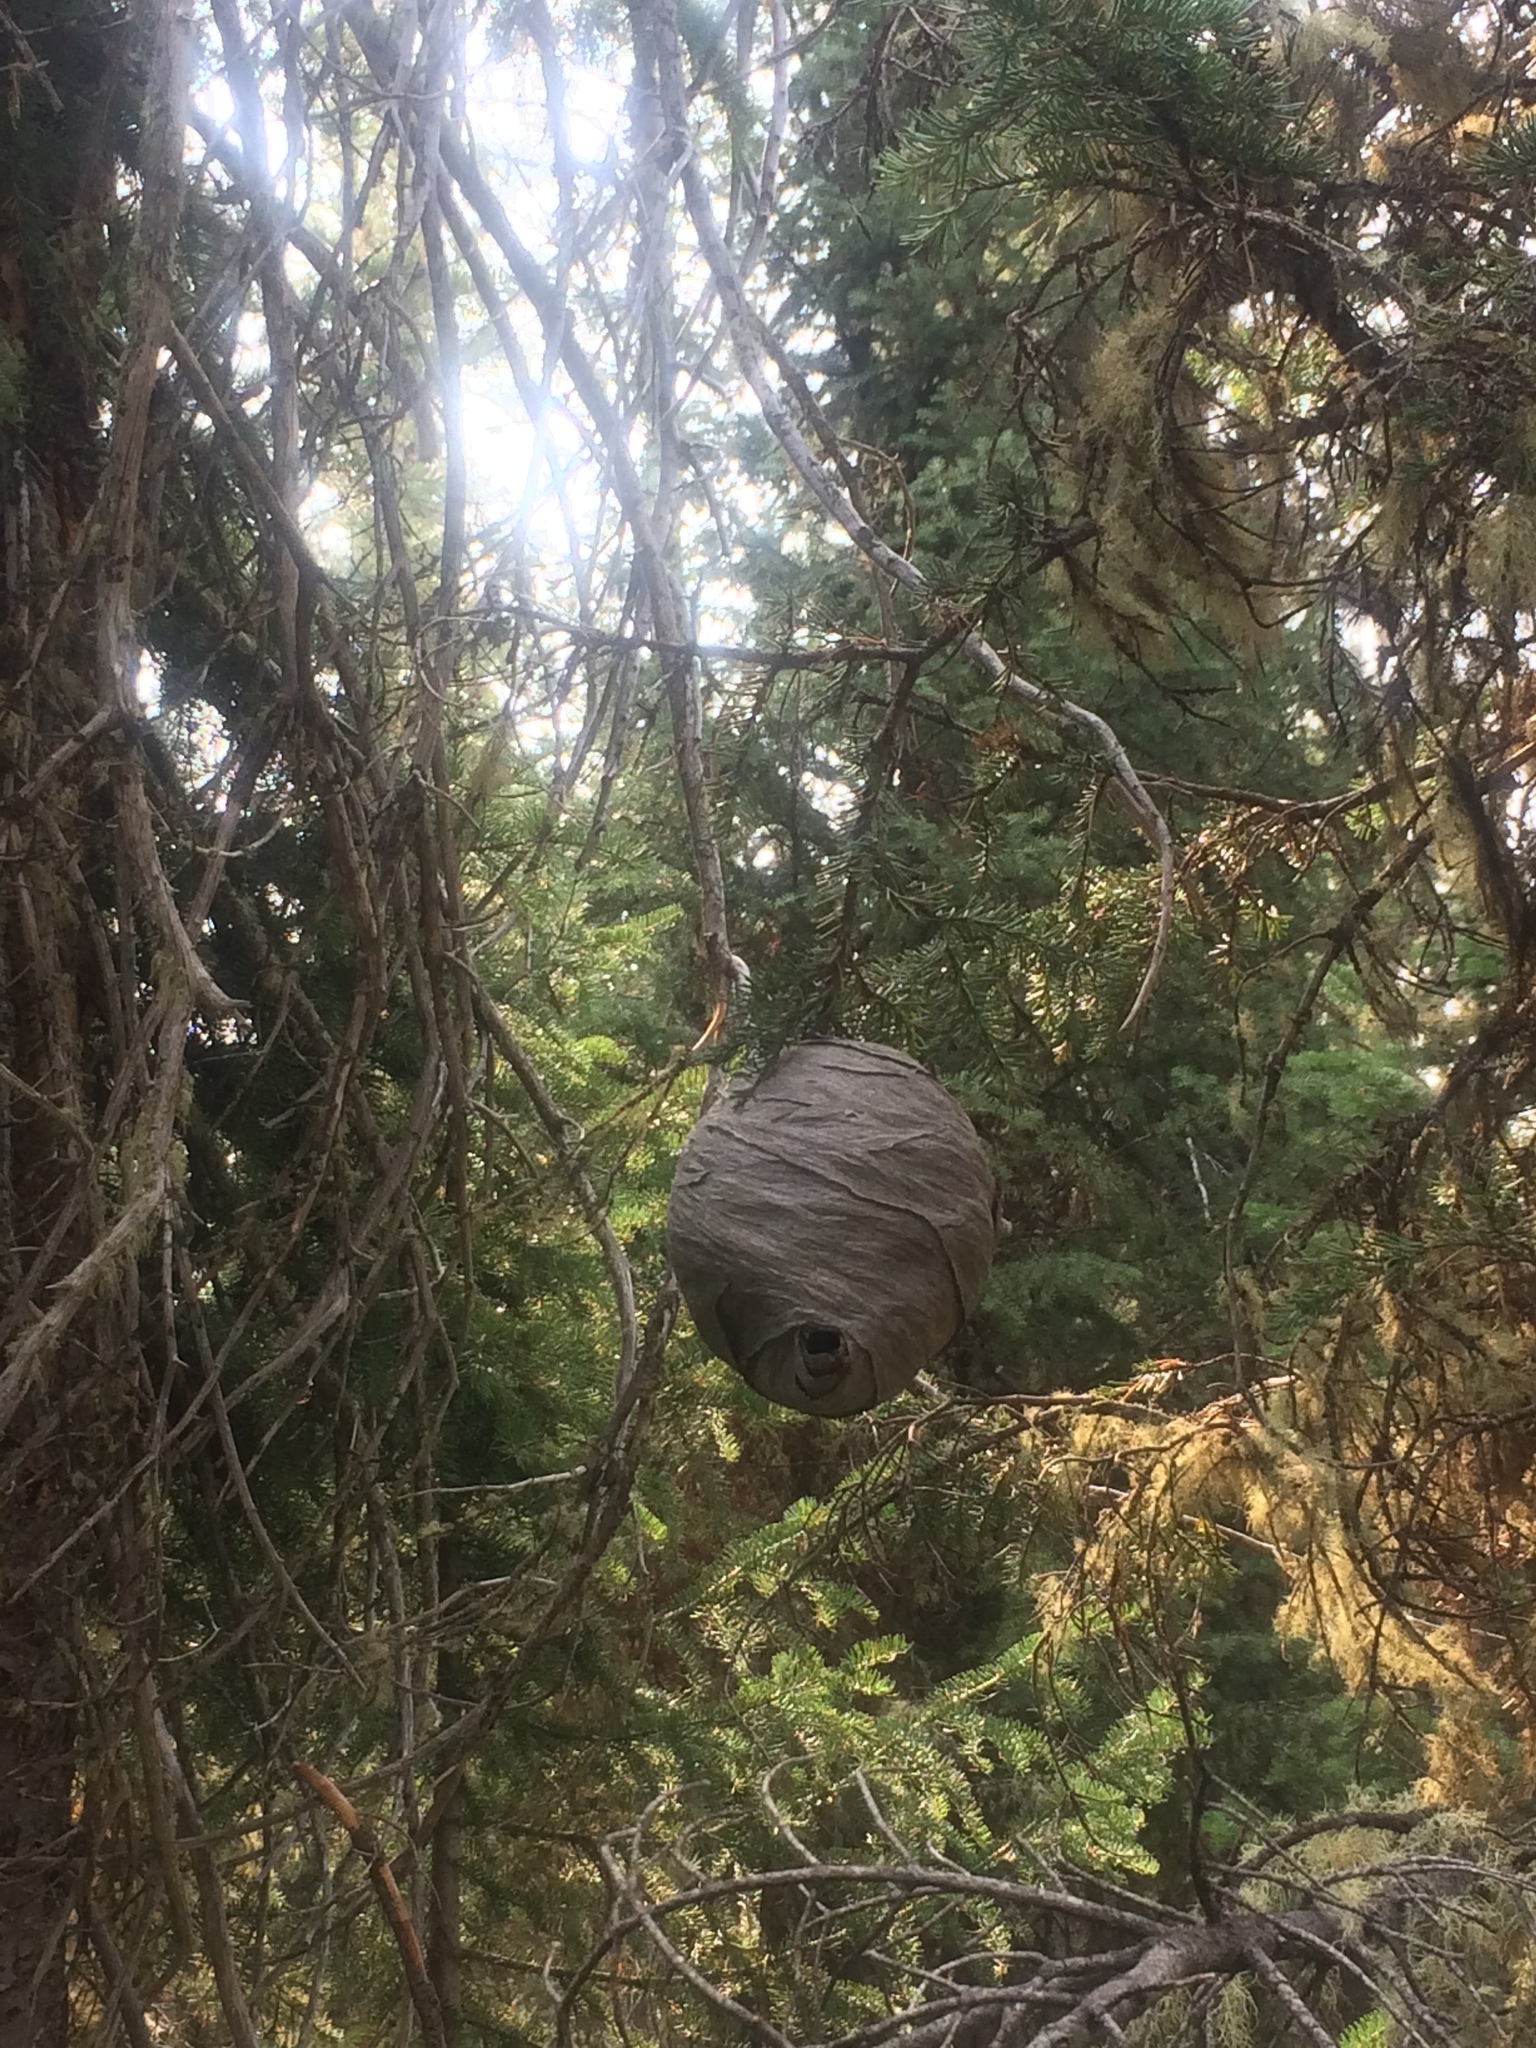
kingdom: Animalia
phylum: Arthropoda
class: Insecta
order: Hymenoptera
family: Vespidae
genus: Dolichovespula
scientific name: Dolichovespula
